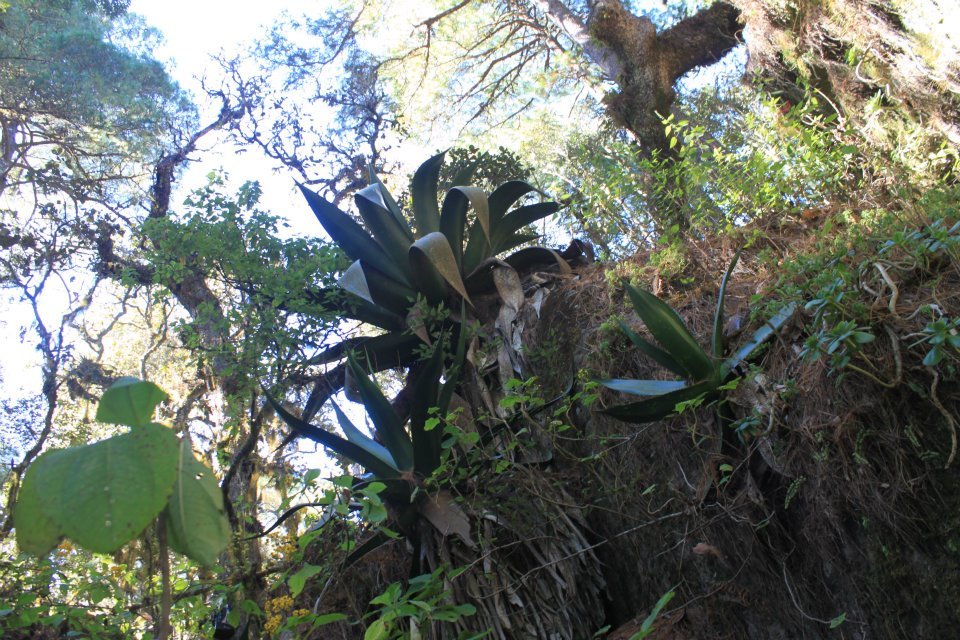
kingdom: Plantae
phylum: Tracheophyta
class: Liliopsida
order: Asparagales
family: Asparagaceae
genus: Agave
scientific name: Agave atrovirens
